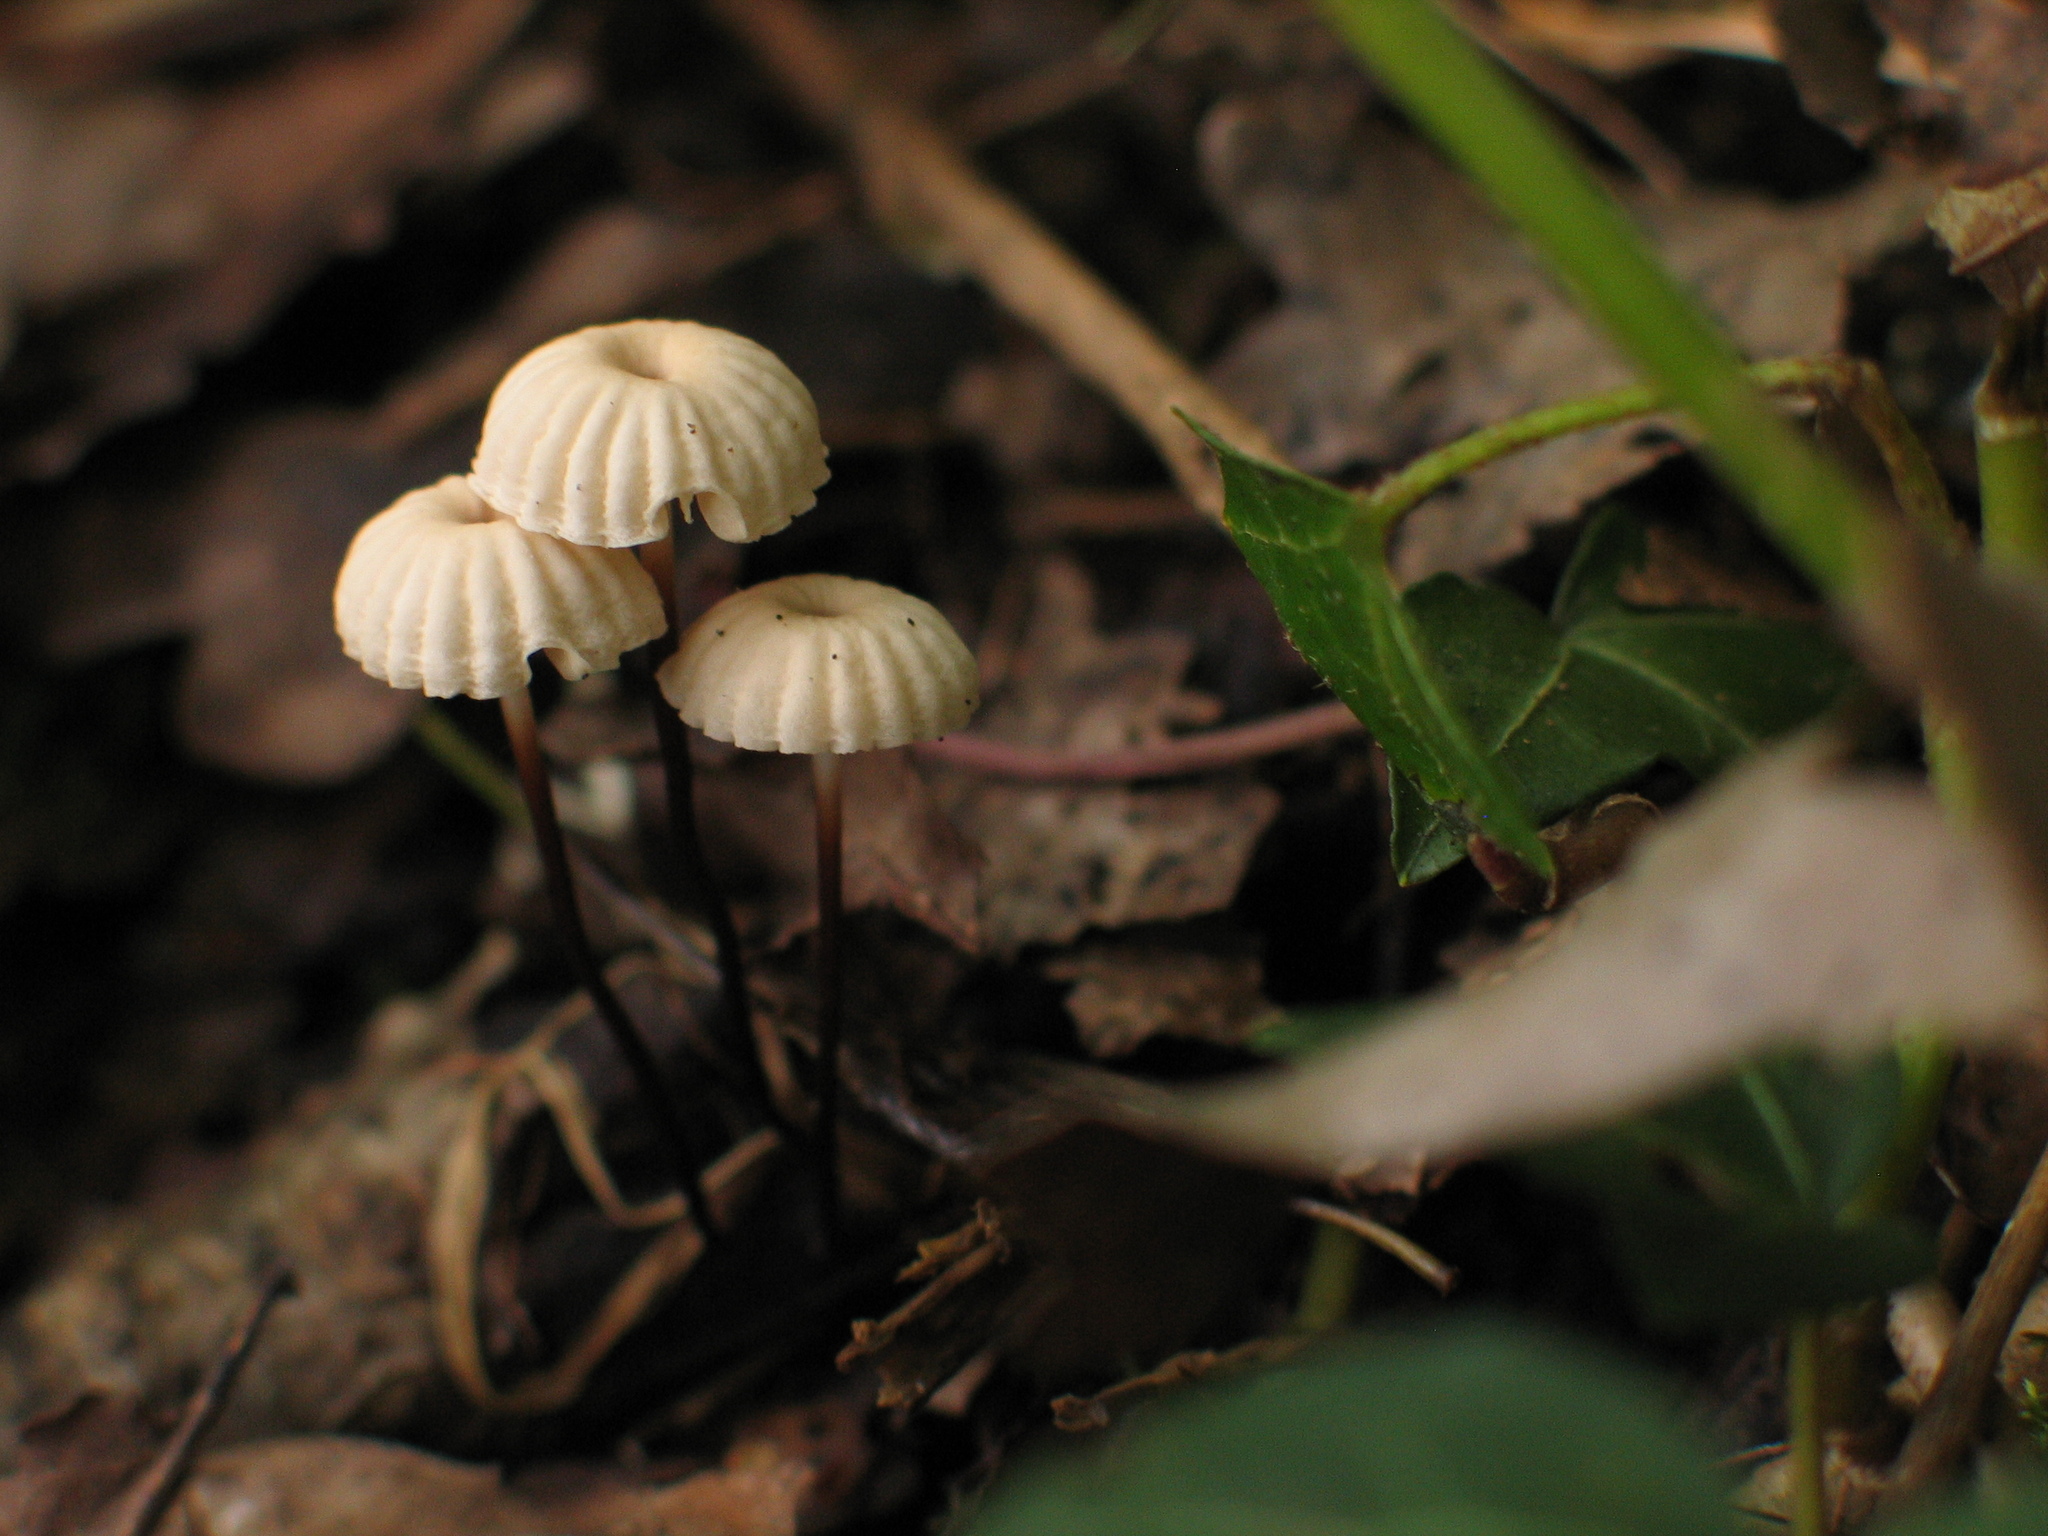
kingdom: Fungi
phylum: Basidiomycota
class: Agaricomycetes
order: Agaricales
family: Marasmiaceae
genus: Marasmius
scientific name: Marasmius rotula
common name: Collared parachute
